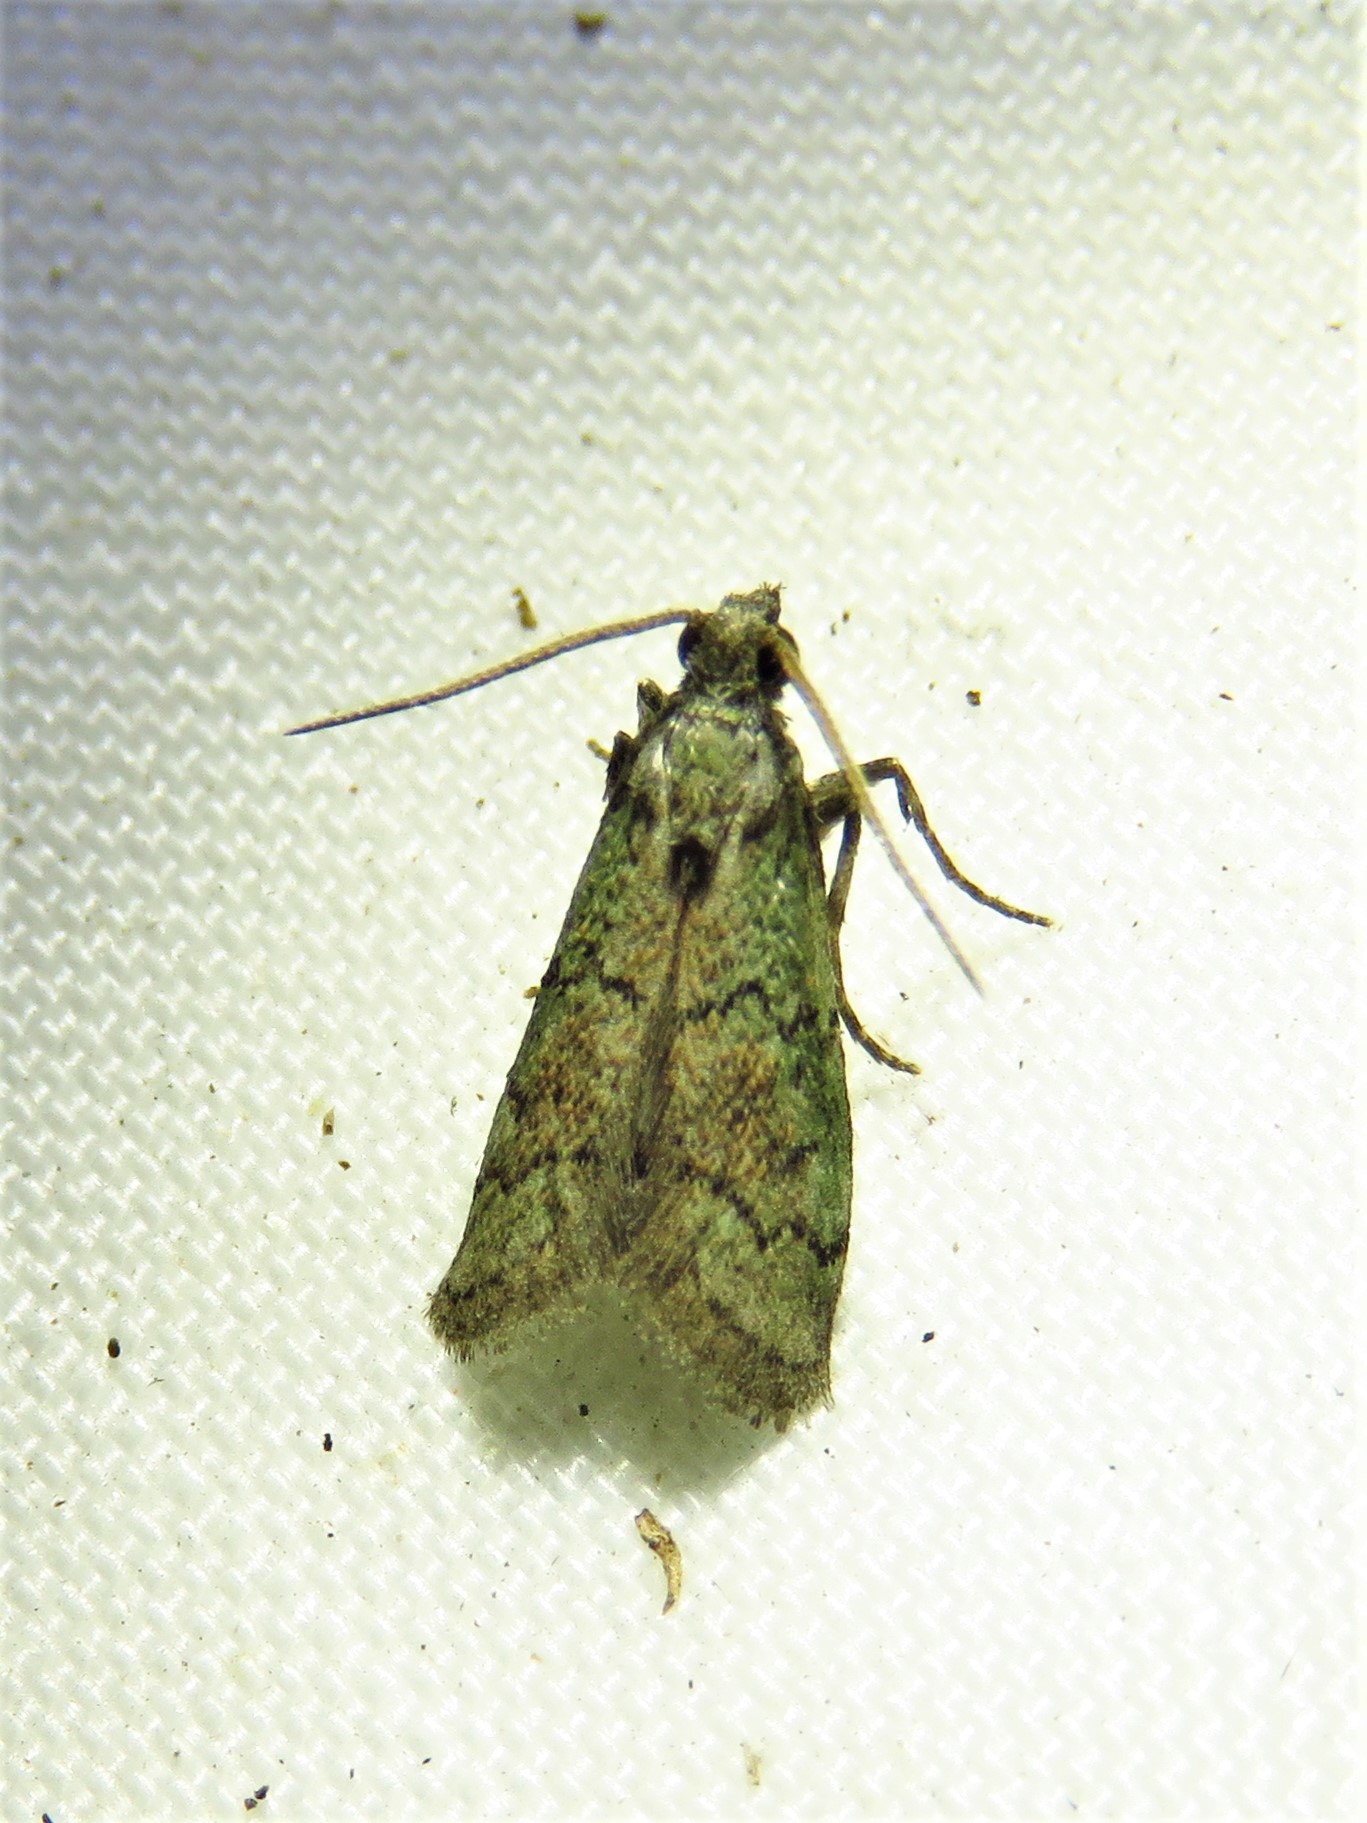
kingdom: Animalia
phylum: Arthropoda
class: Insecta
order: Lepidoptera
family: Pyralidae
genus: Cacotherapia
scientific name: Cacotherapia flexilinealis
